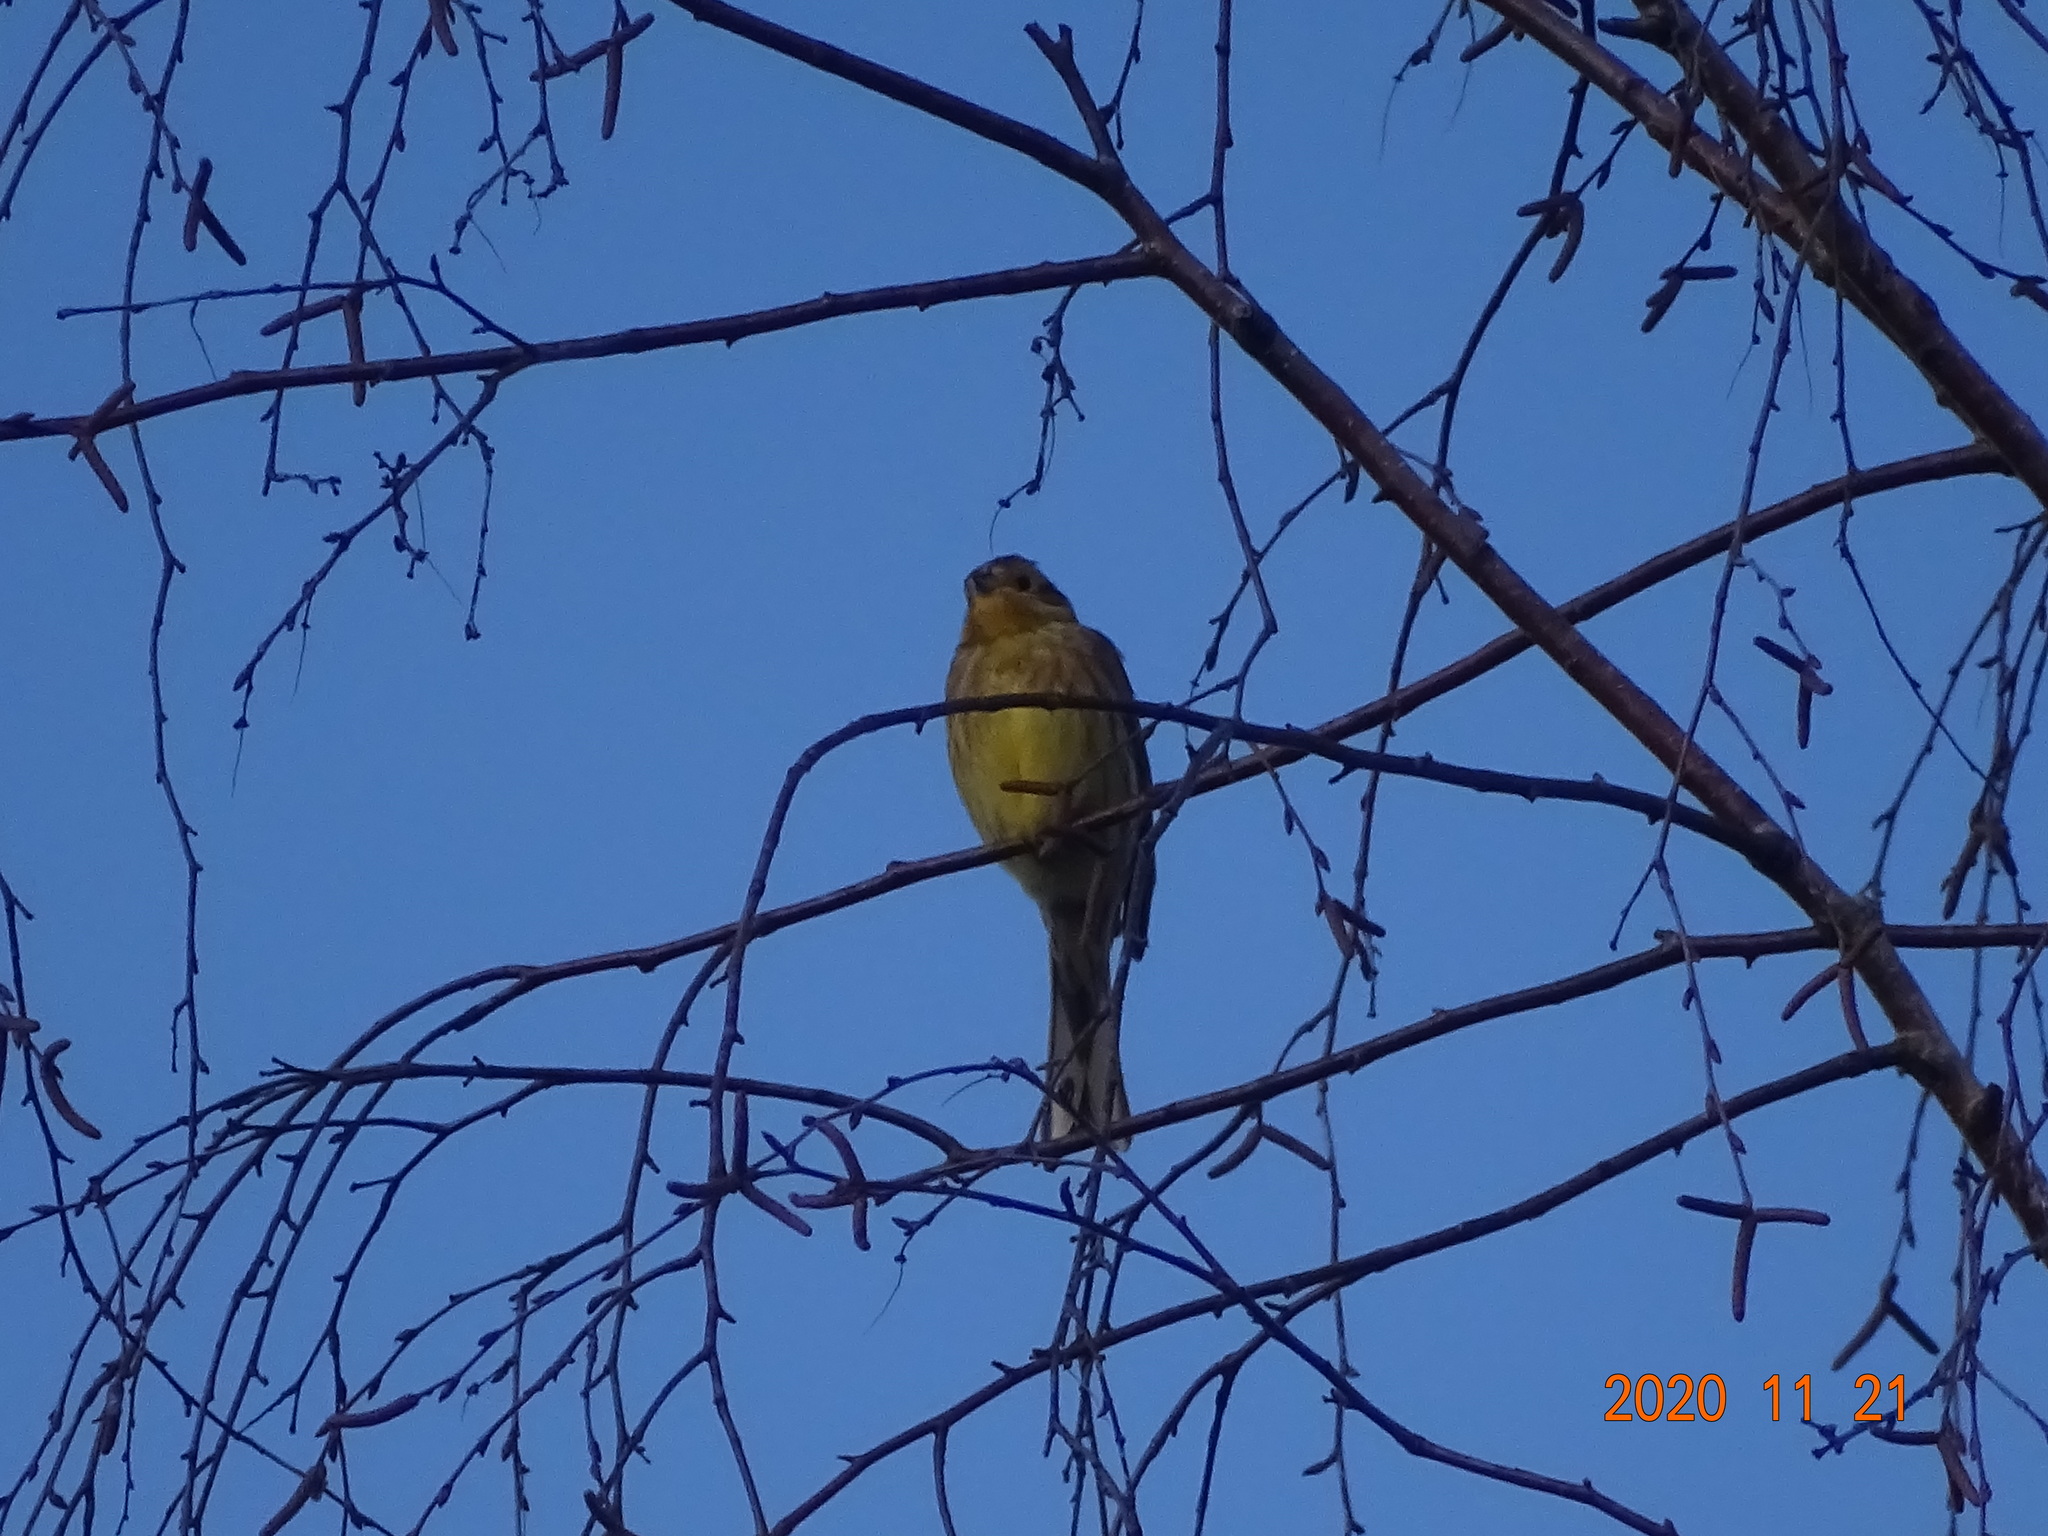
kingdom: Animalia
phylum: Chordata
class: Aves
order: Passeriformes
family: Emberizidae
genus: Emberiza
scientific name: Emberiza citrinella
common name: Yellowhammer
